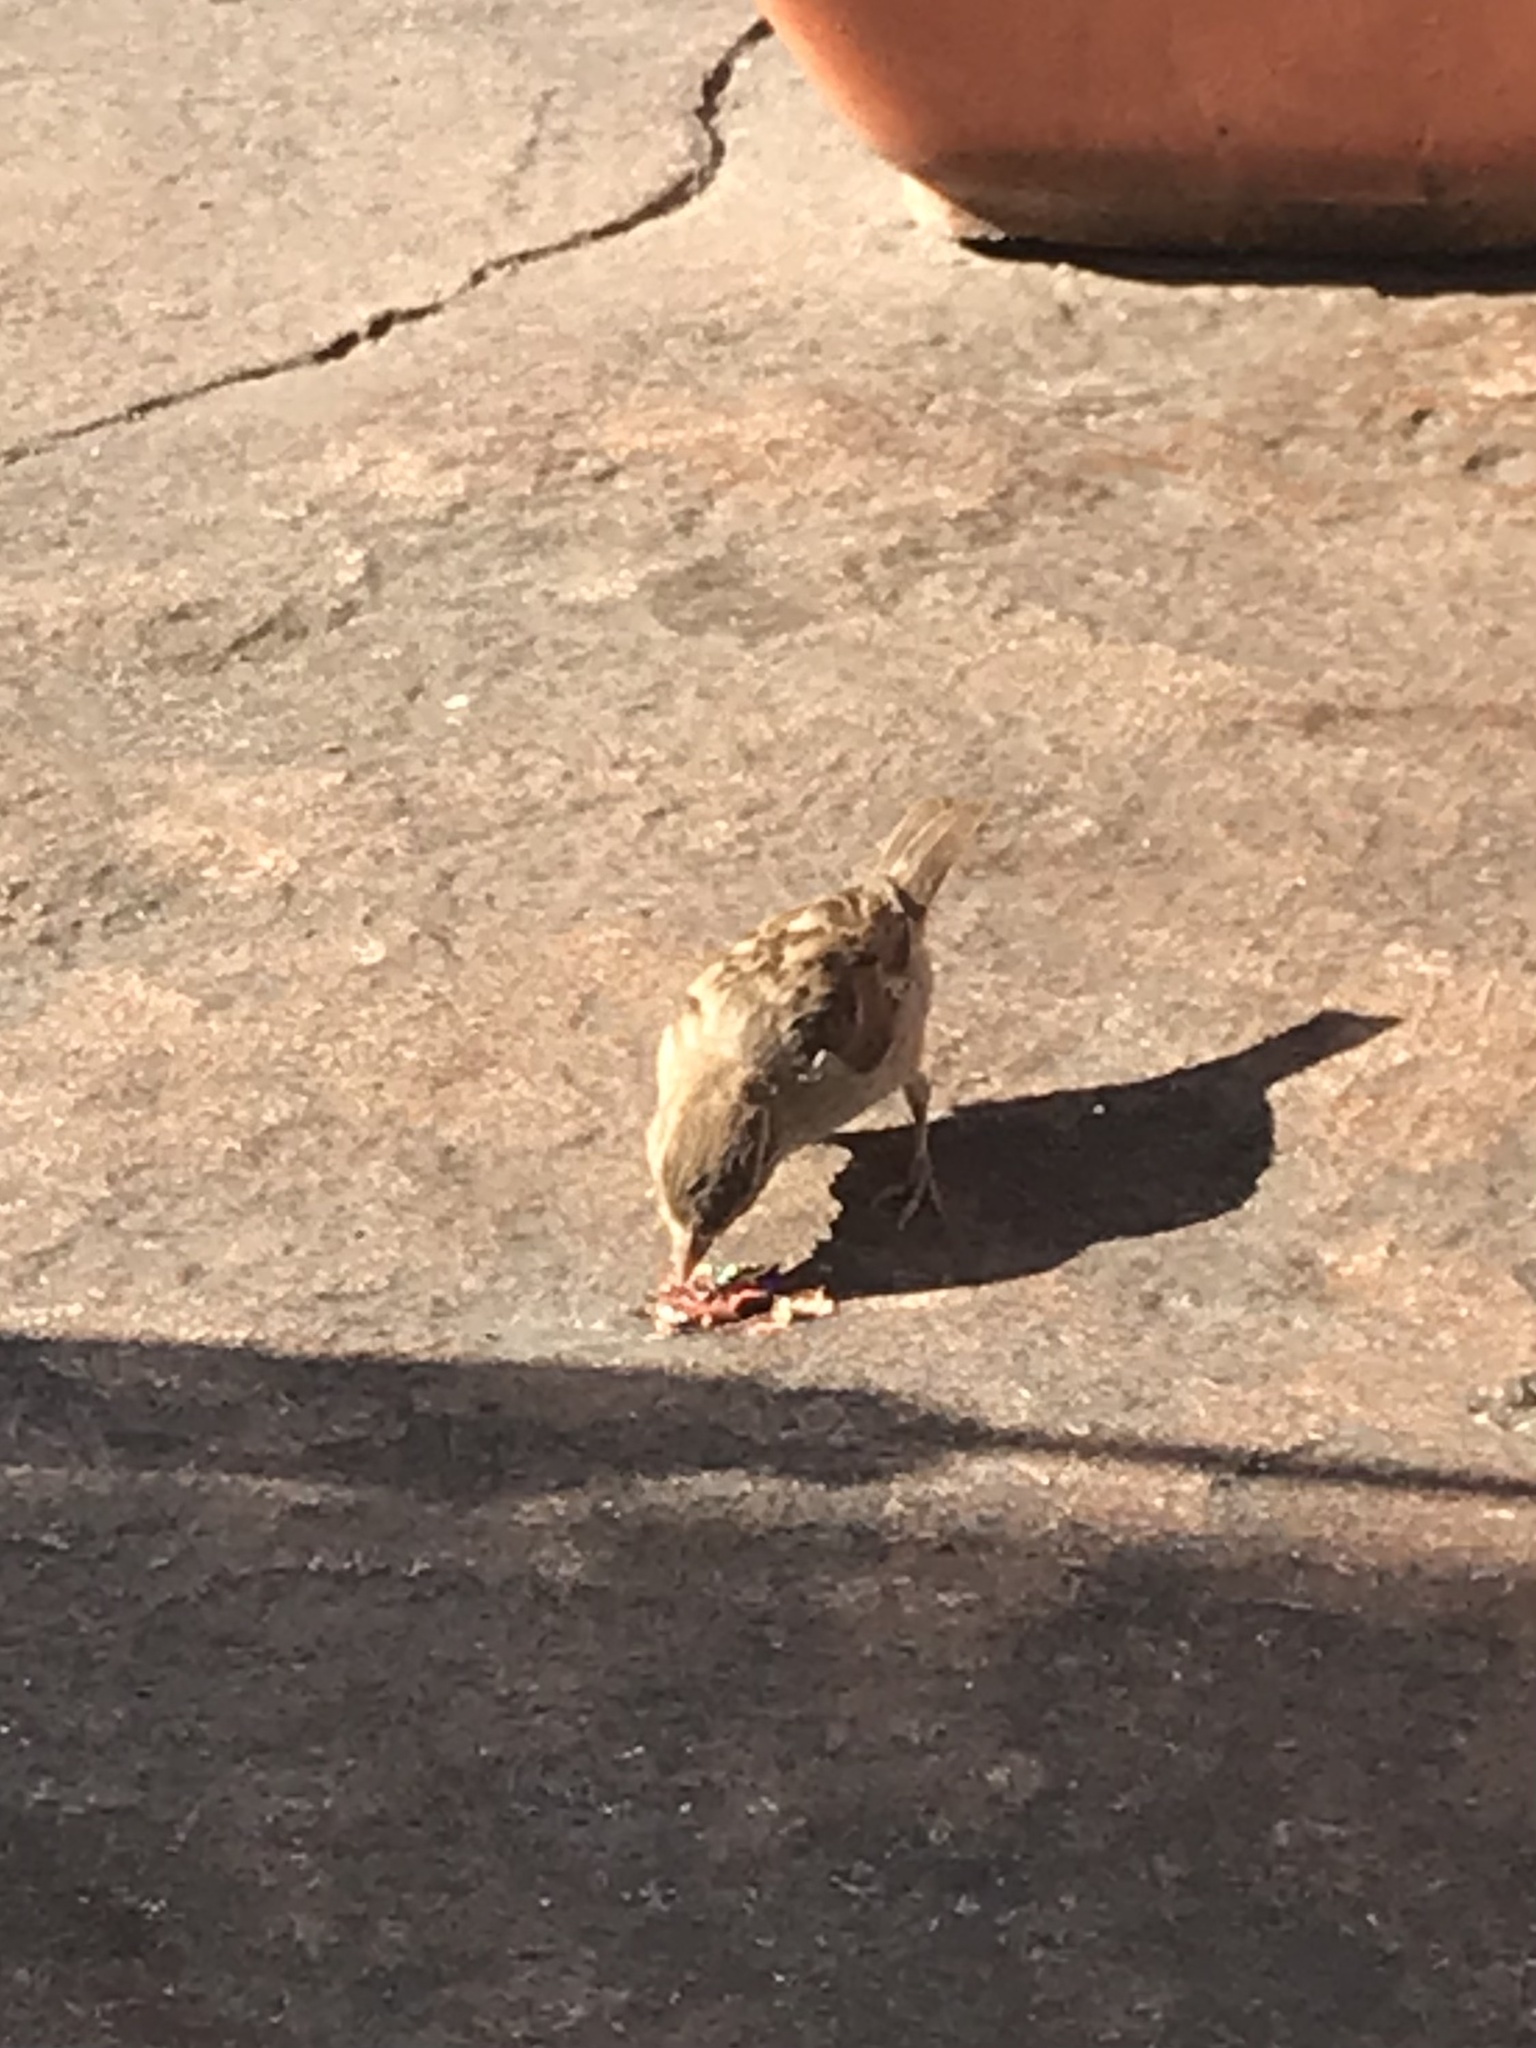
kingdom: Animalia
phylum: Chordata
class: Aves
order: Passeriformes
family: Passeridae
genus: Passer
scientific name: Passer domesticus
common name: House sparrow
